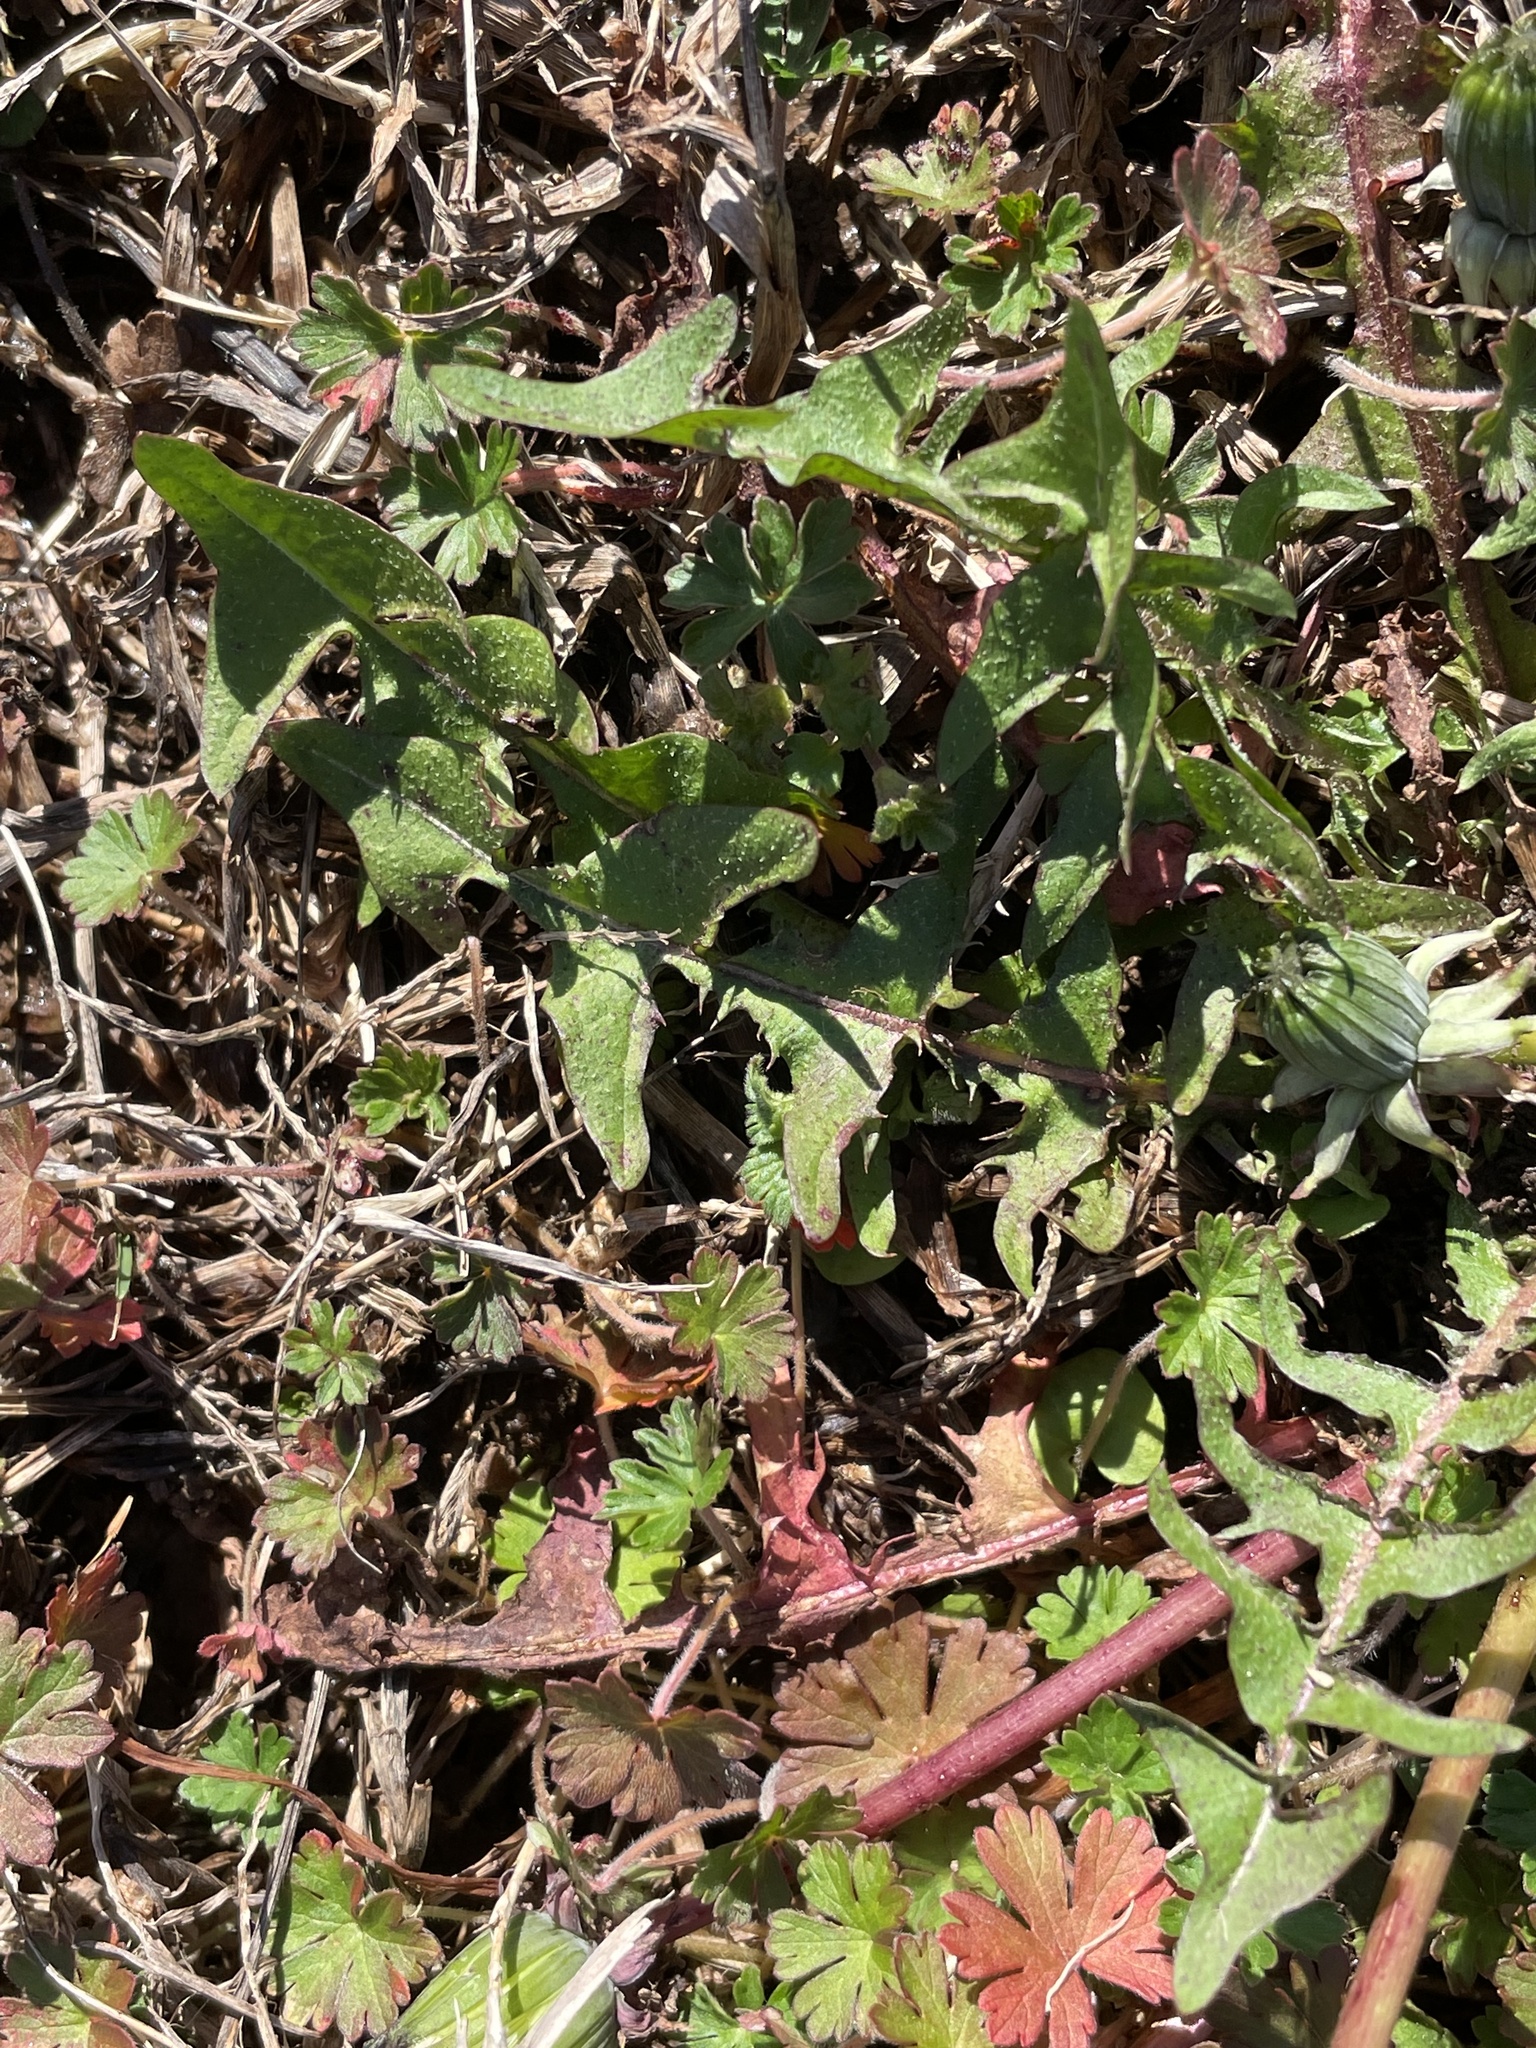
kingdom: Plantae
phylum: Tracheophyta
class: Magnoliopsida
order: Asterales
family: Asteraceae
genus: Taraxacum
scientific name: Taraxacum erythrospermum
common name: Rock dandelion
